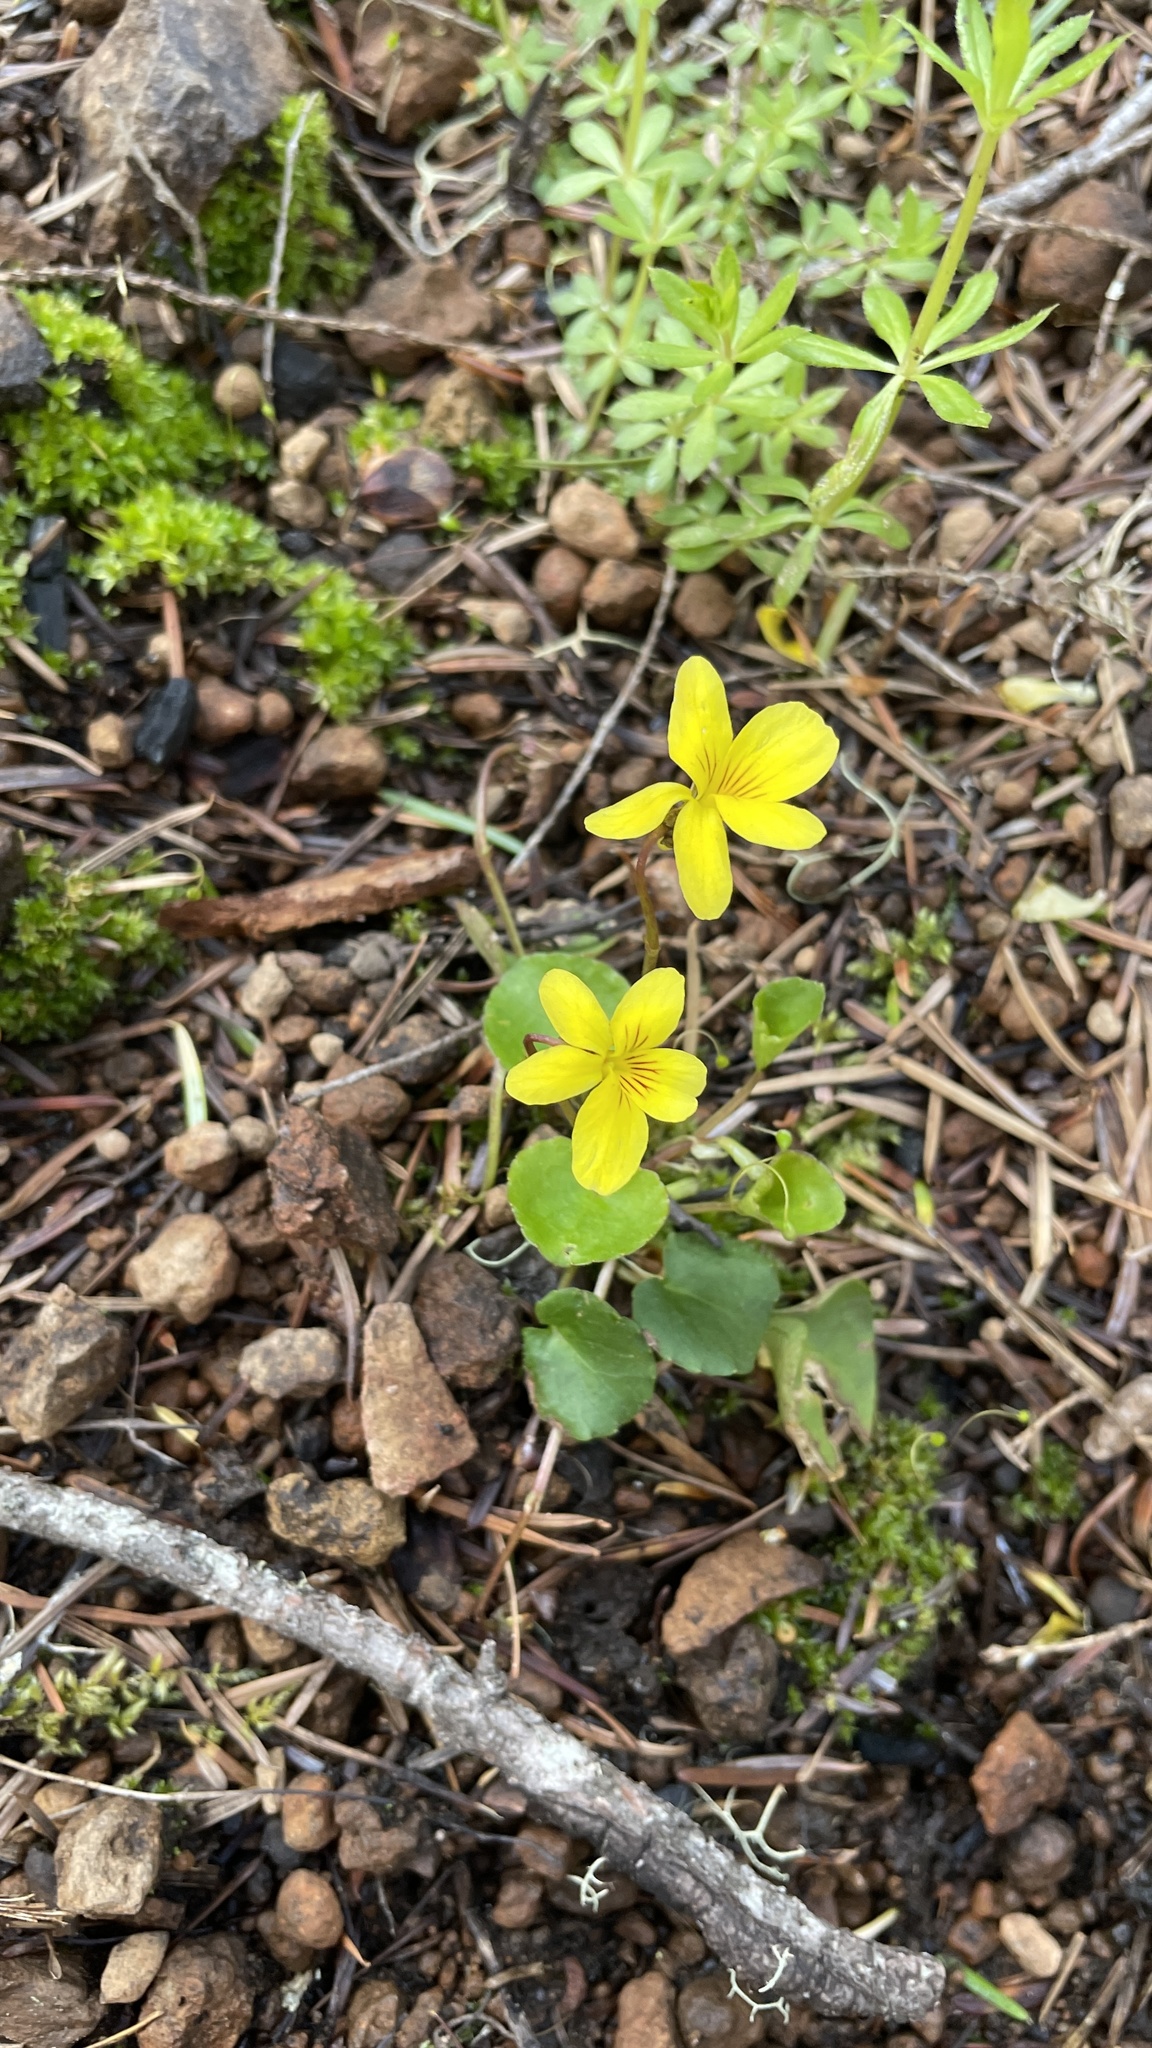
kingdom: Plantae
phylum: Tracheophyta
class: Magnoliopsida
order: Malpighiales
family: Violaceae
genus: Viola
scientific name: Viola sempervirens
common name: Evergreen violet
